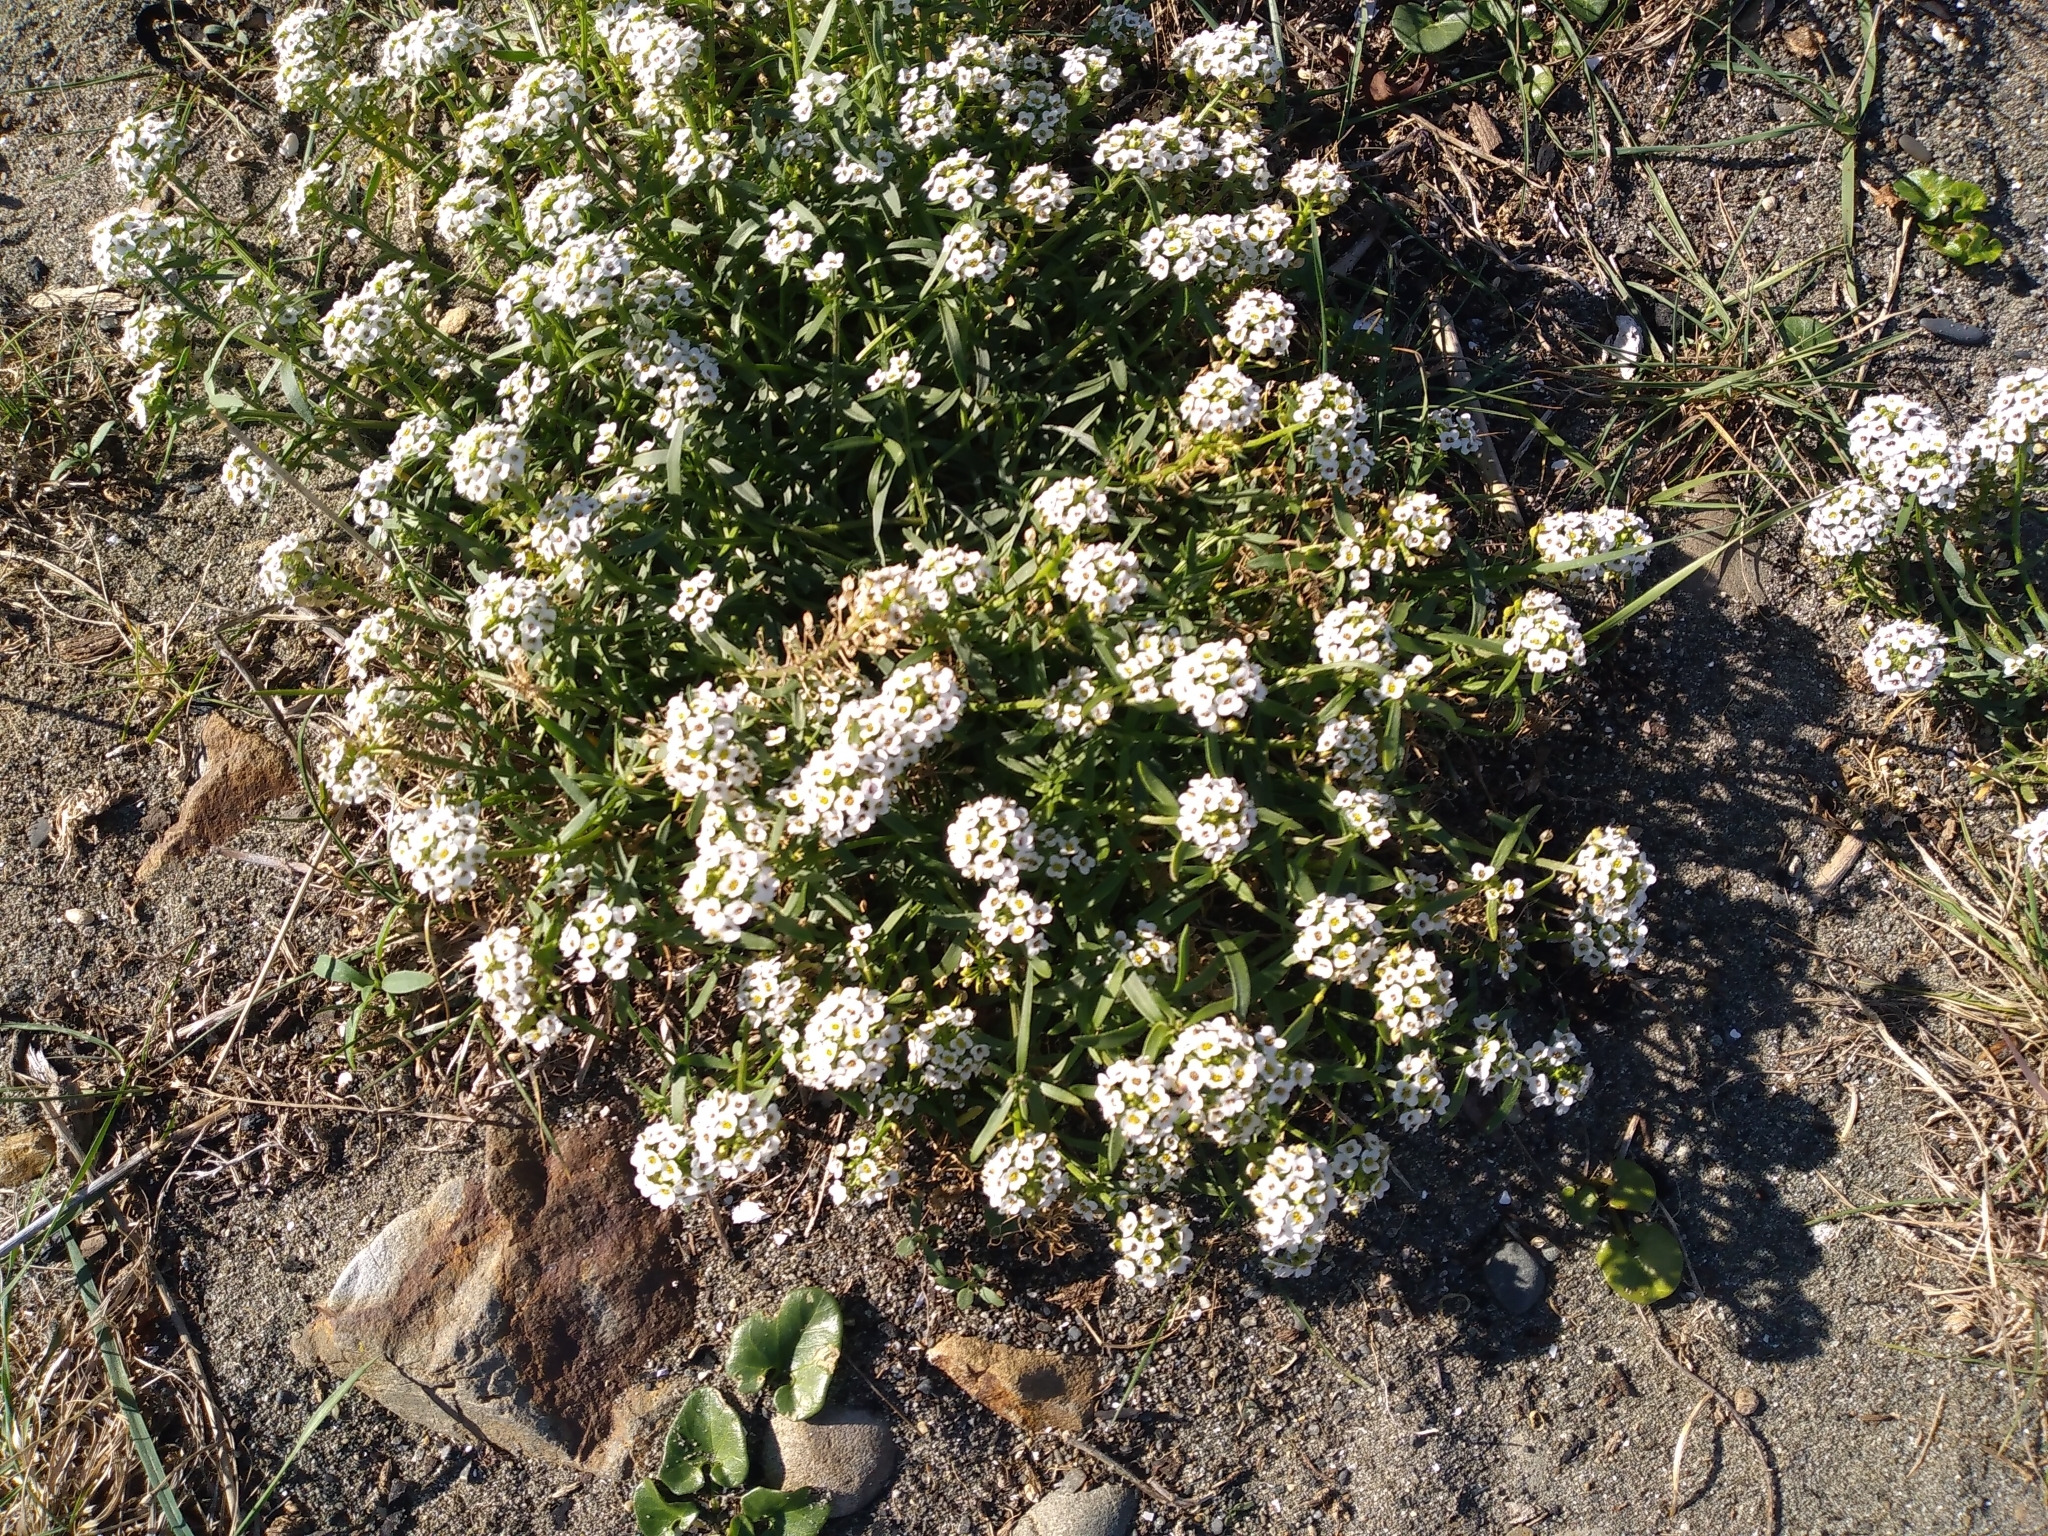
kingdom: Plantae
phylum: Tracheophyta
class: Magnoliopsida
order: Brassicales
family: Brassicaceae
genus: Lobularia
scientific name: Lobularia maritima
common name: Sweet alison
